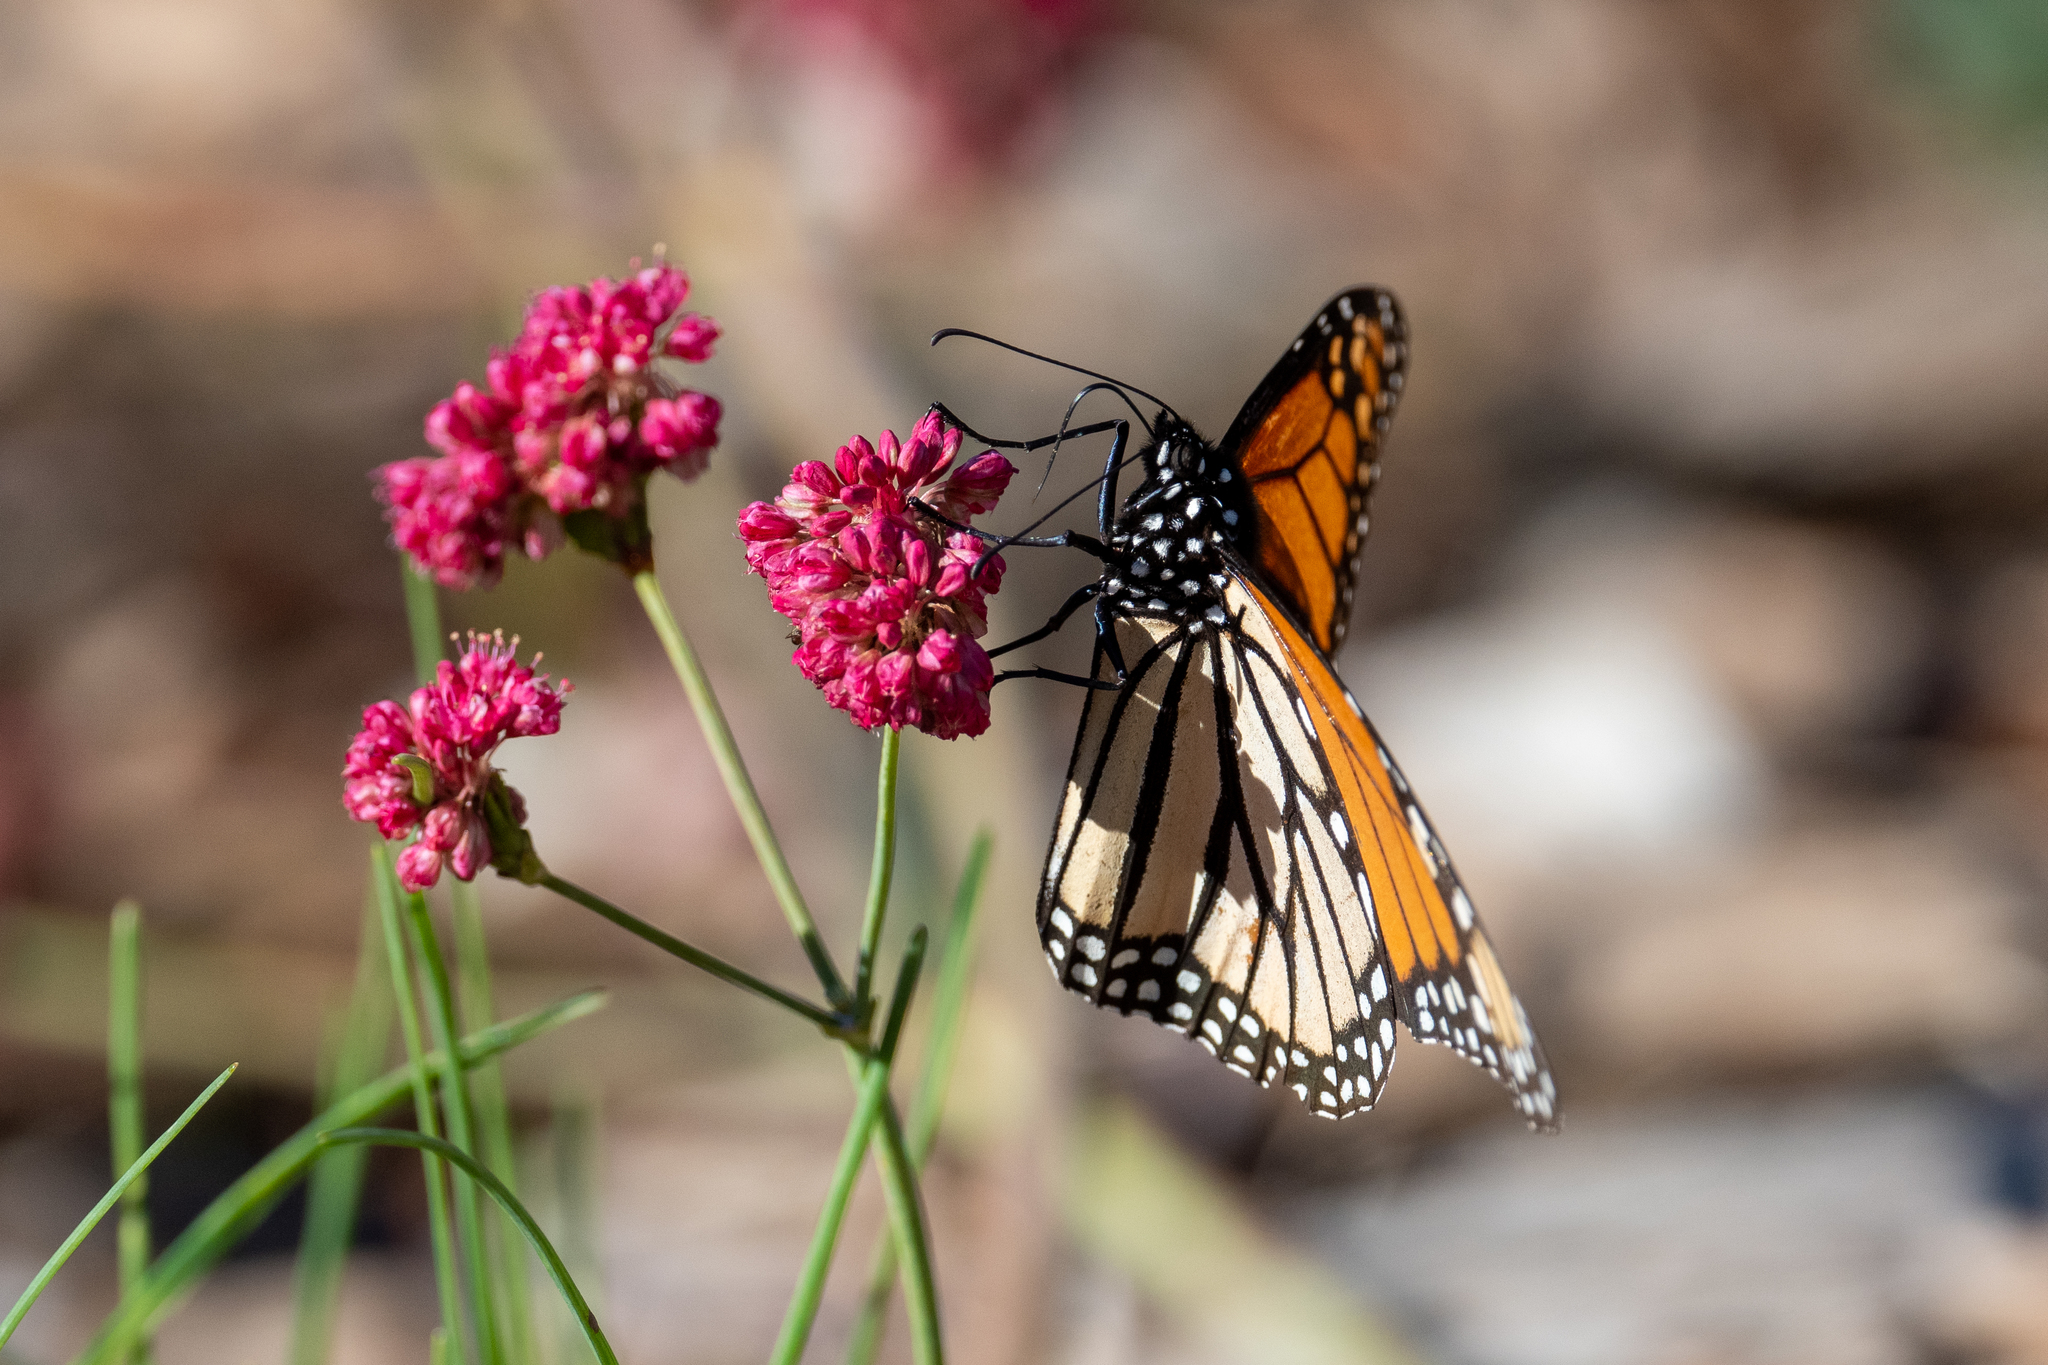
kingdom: Animalia
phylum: Arthropoda
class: Insecta
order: Lepidoptera
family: Nymphalidae
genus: Danaus
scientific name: Danaus plexippus
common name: Monarch
